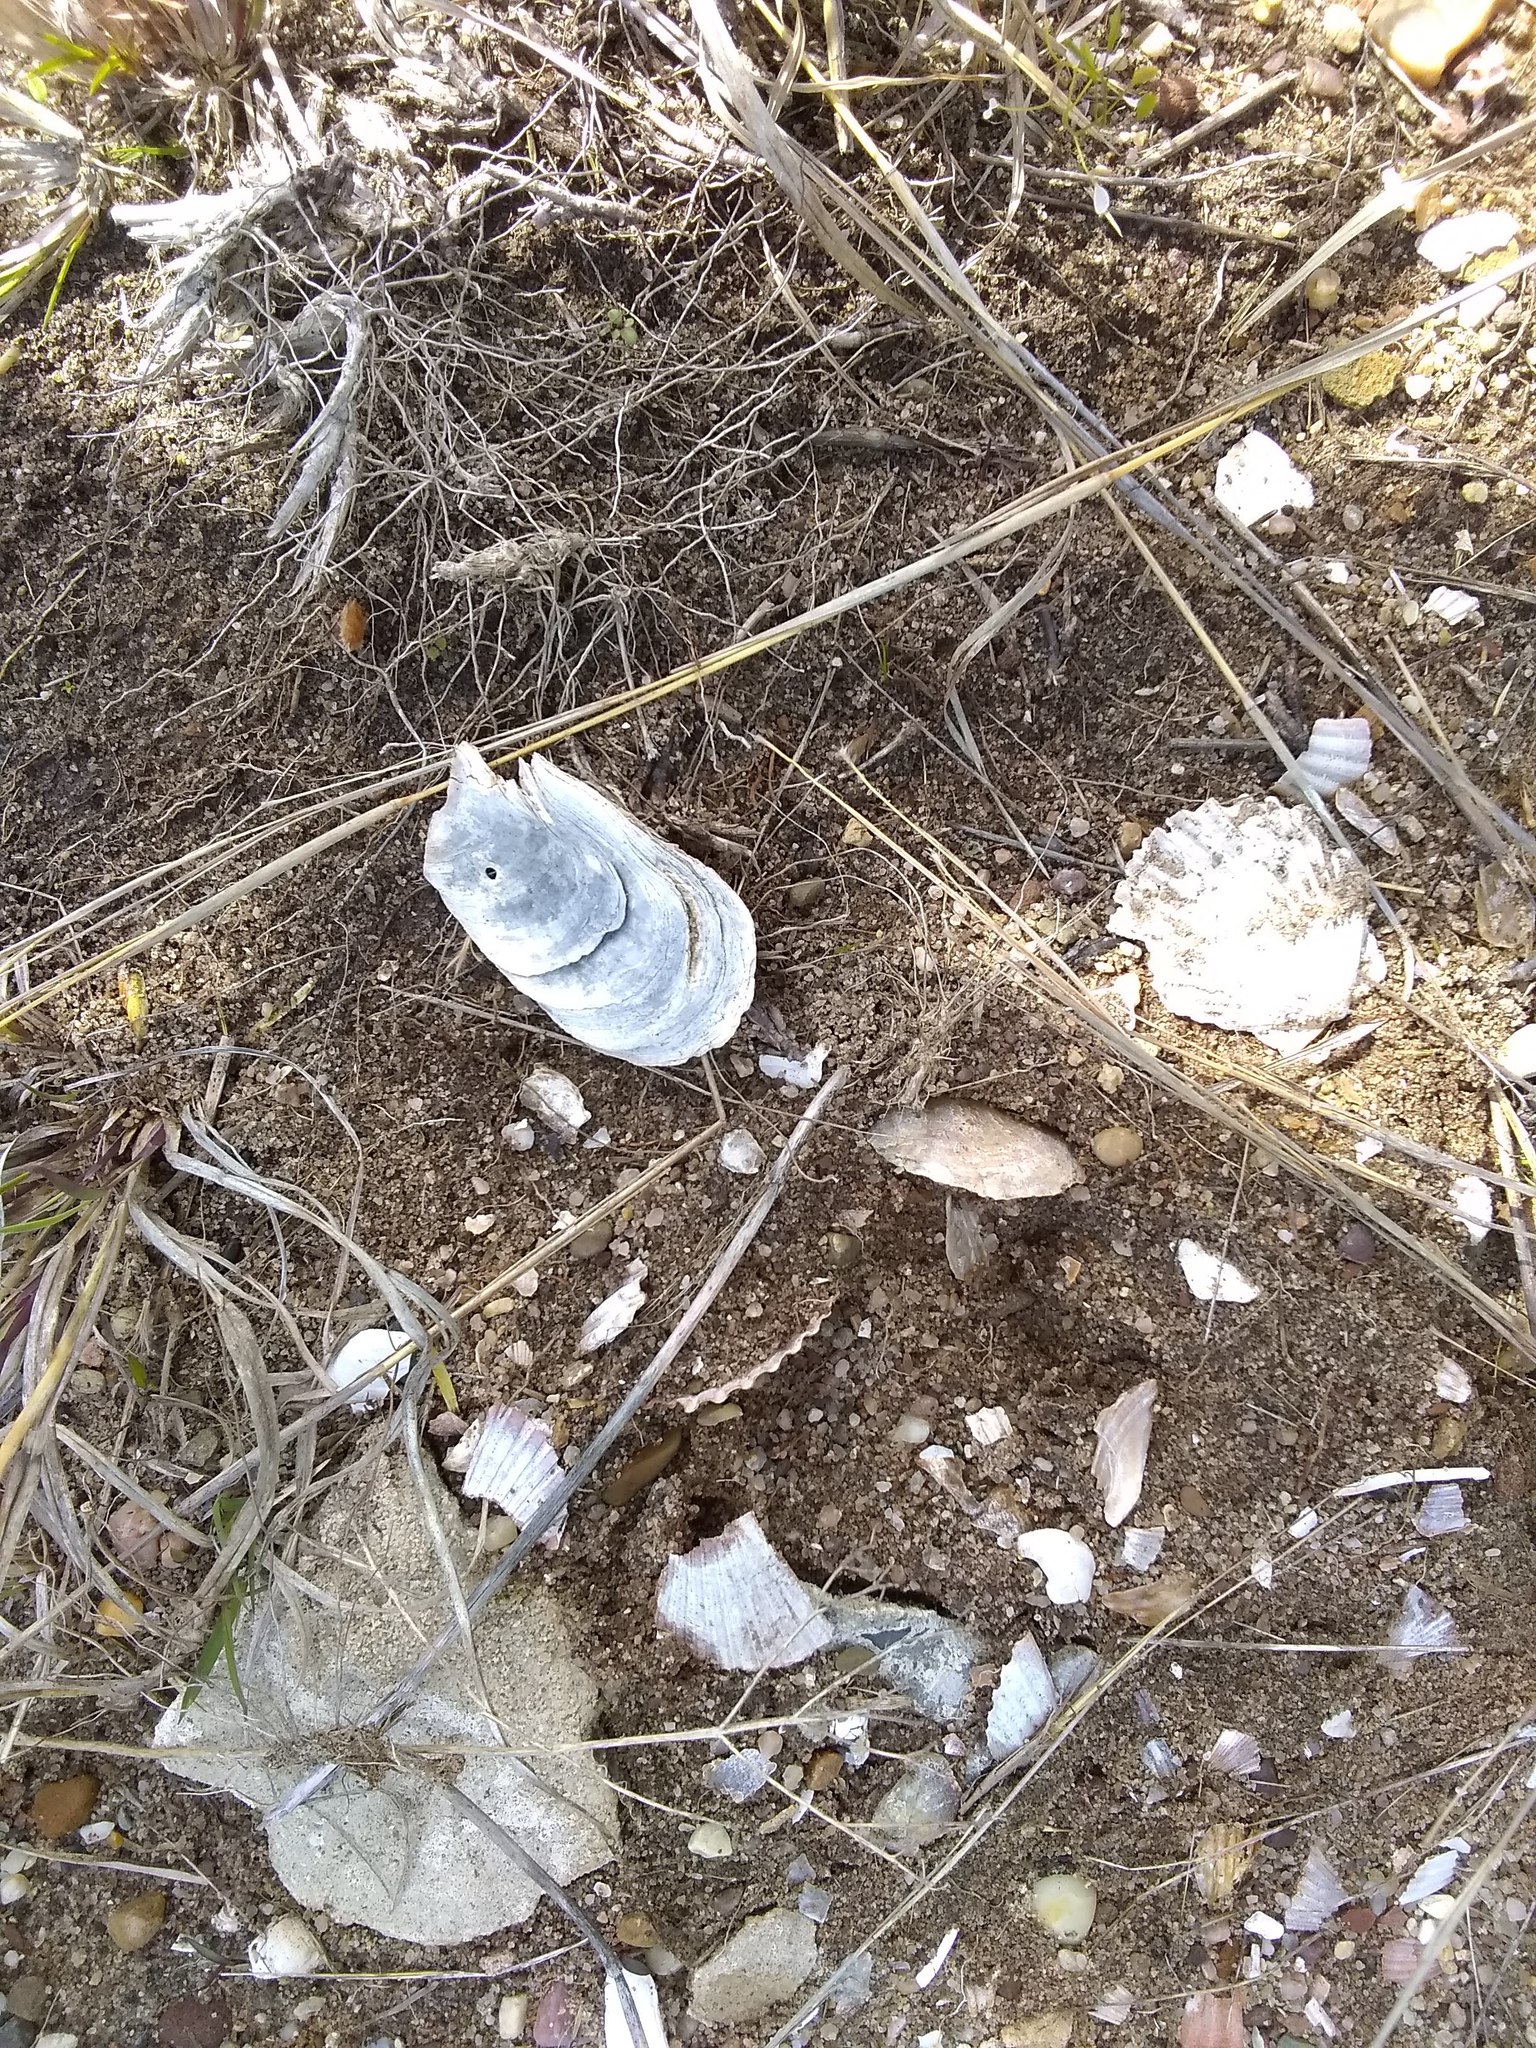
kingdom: Animalia
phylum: Mollusca
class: Bivalvia
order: Ostreida
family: Ostreidae
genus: Crassostrea
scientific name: Crassostrea virginica
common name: American oyster
